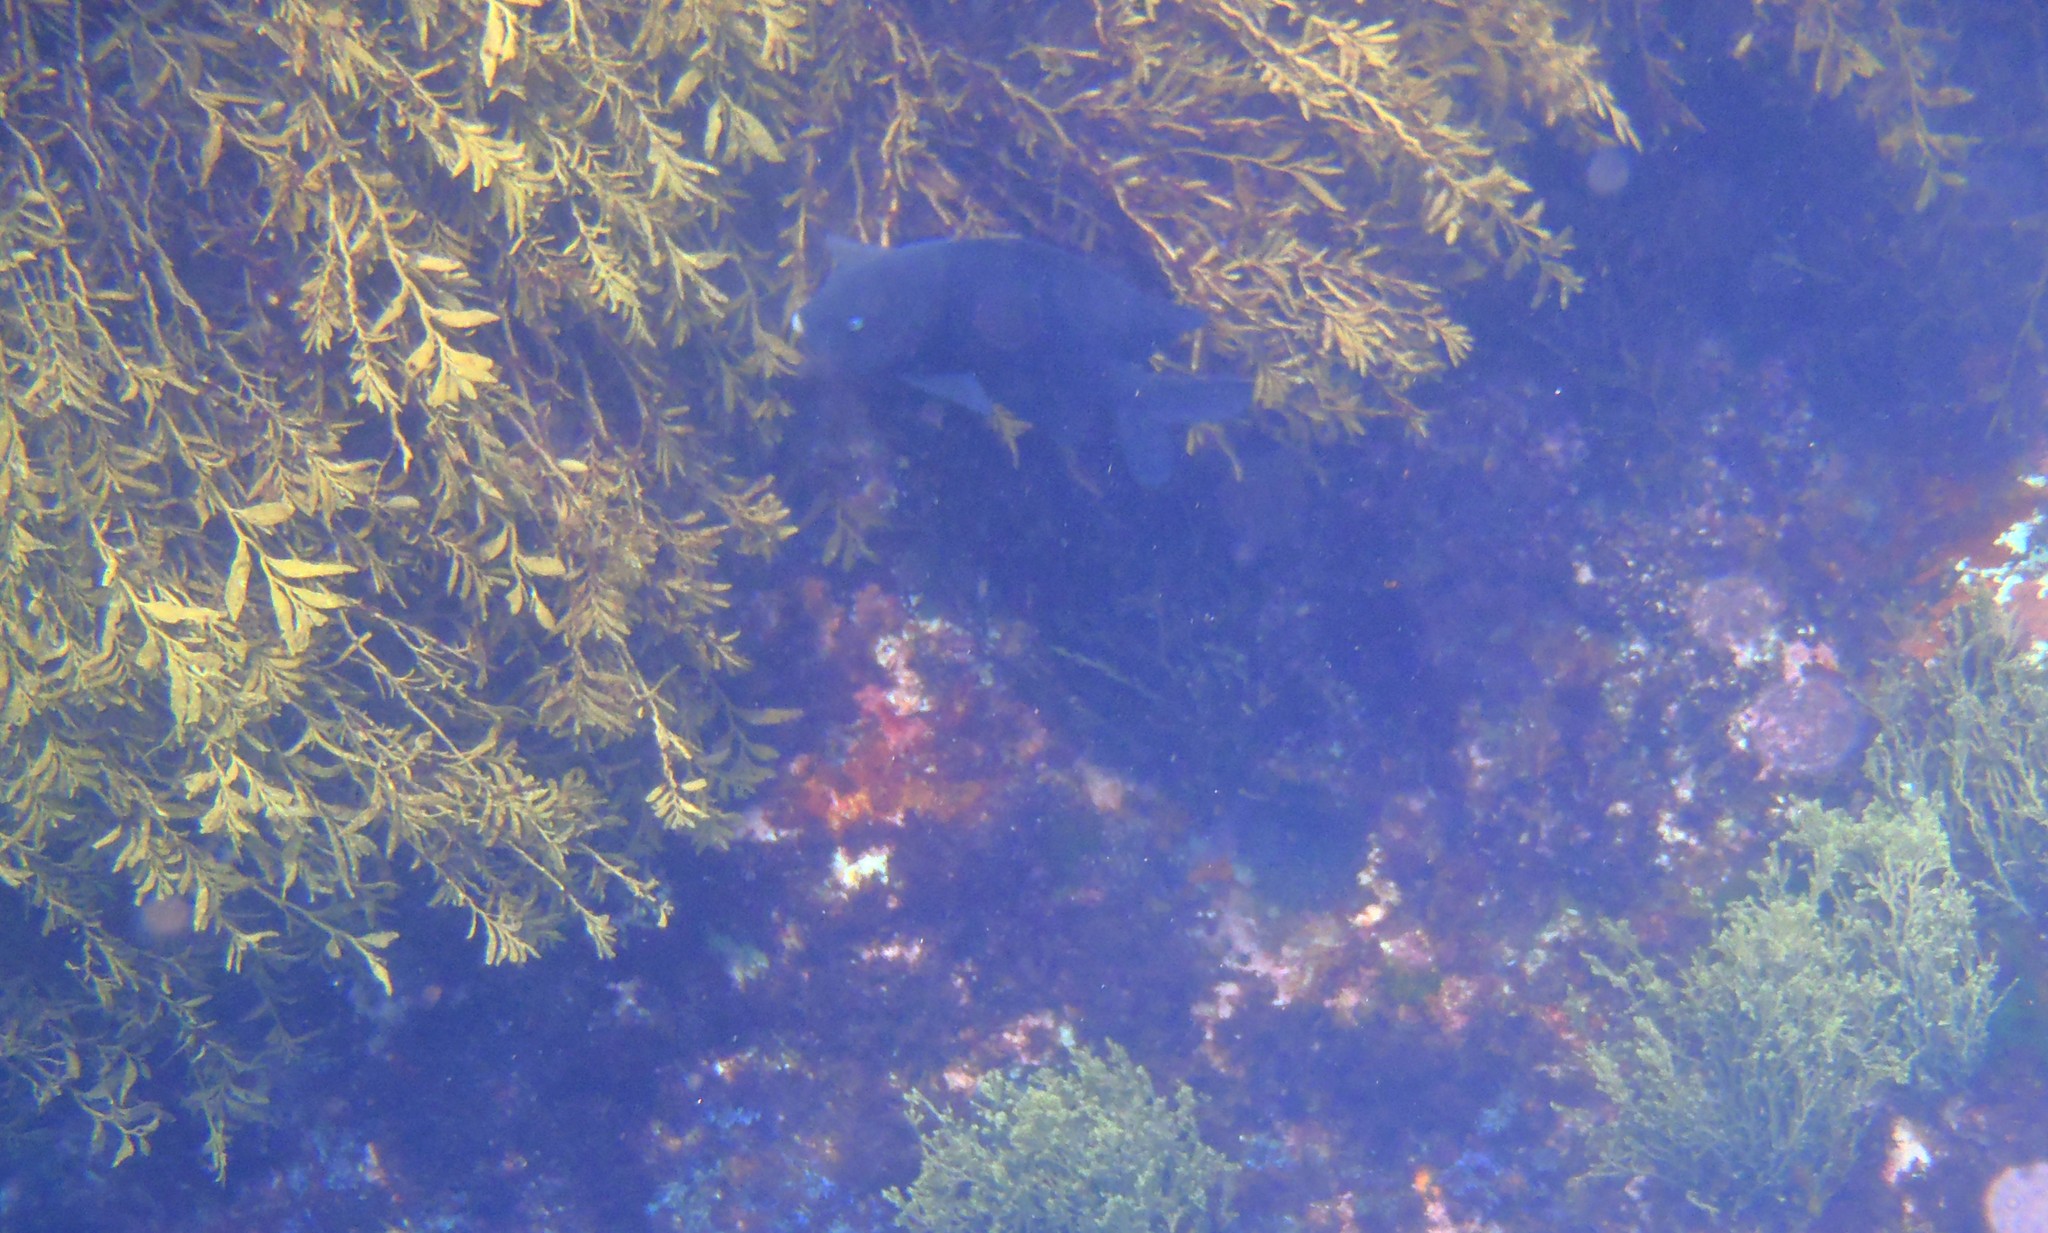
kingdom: Animalia
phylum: Chordata
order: Perciformes
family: Pomacentridae
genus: Parma
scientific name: Parma alboscapularis
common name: Black angelfish
